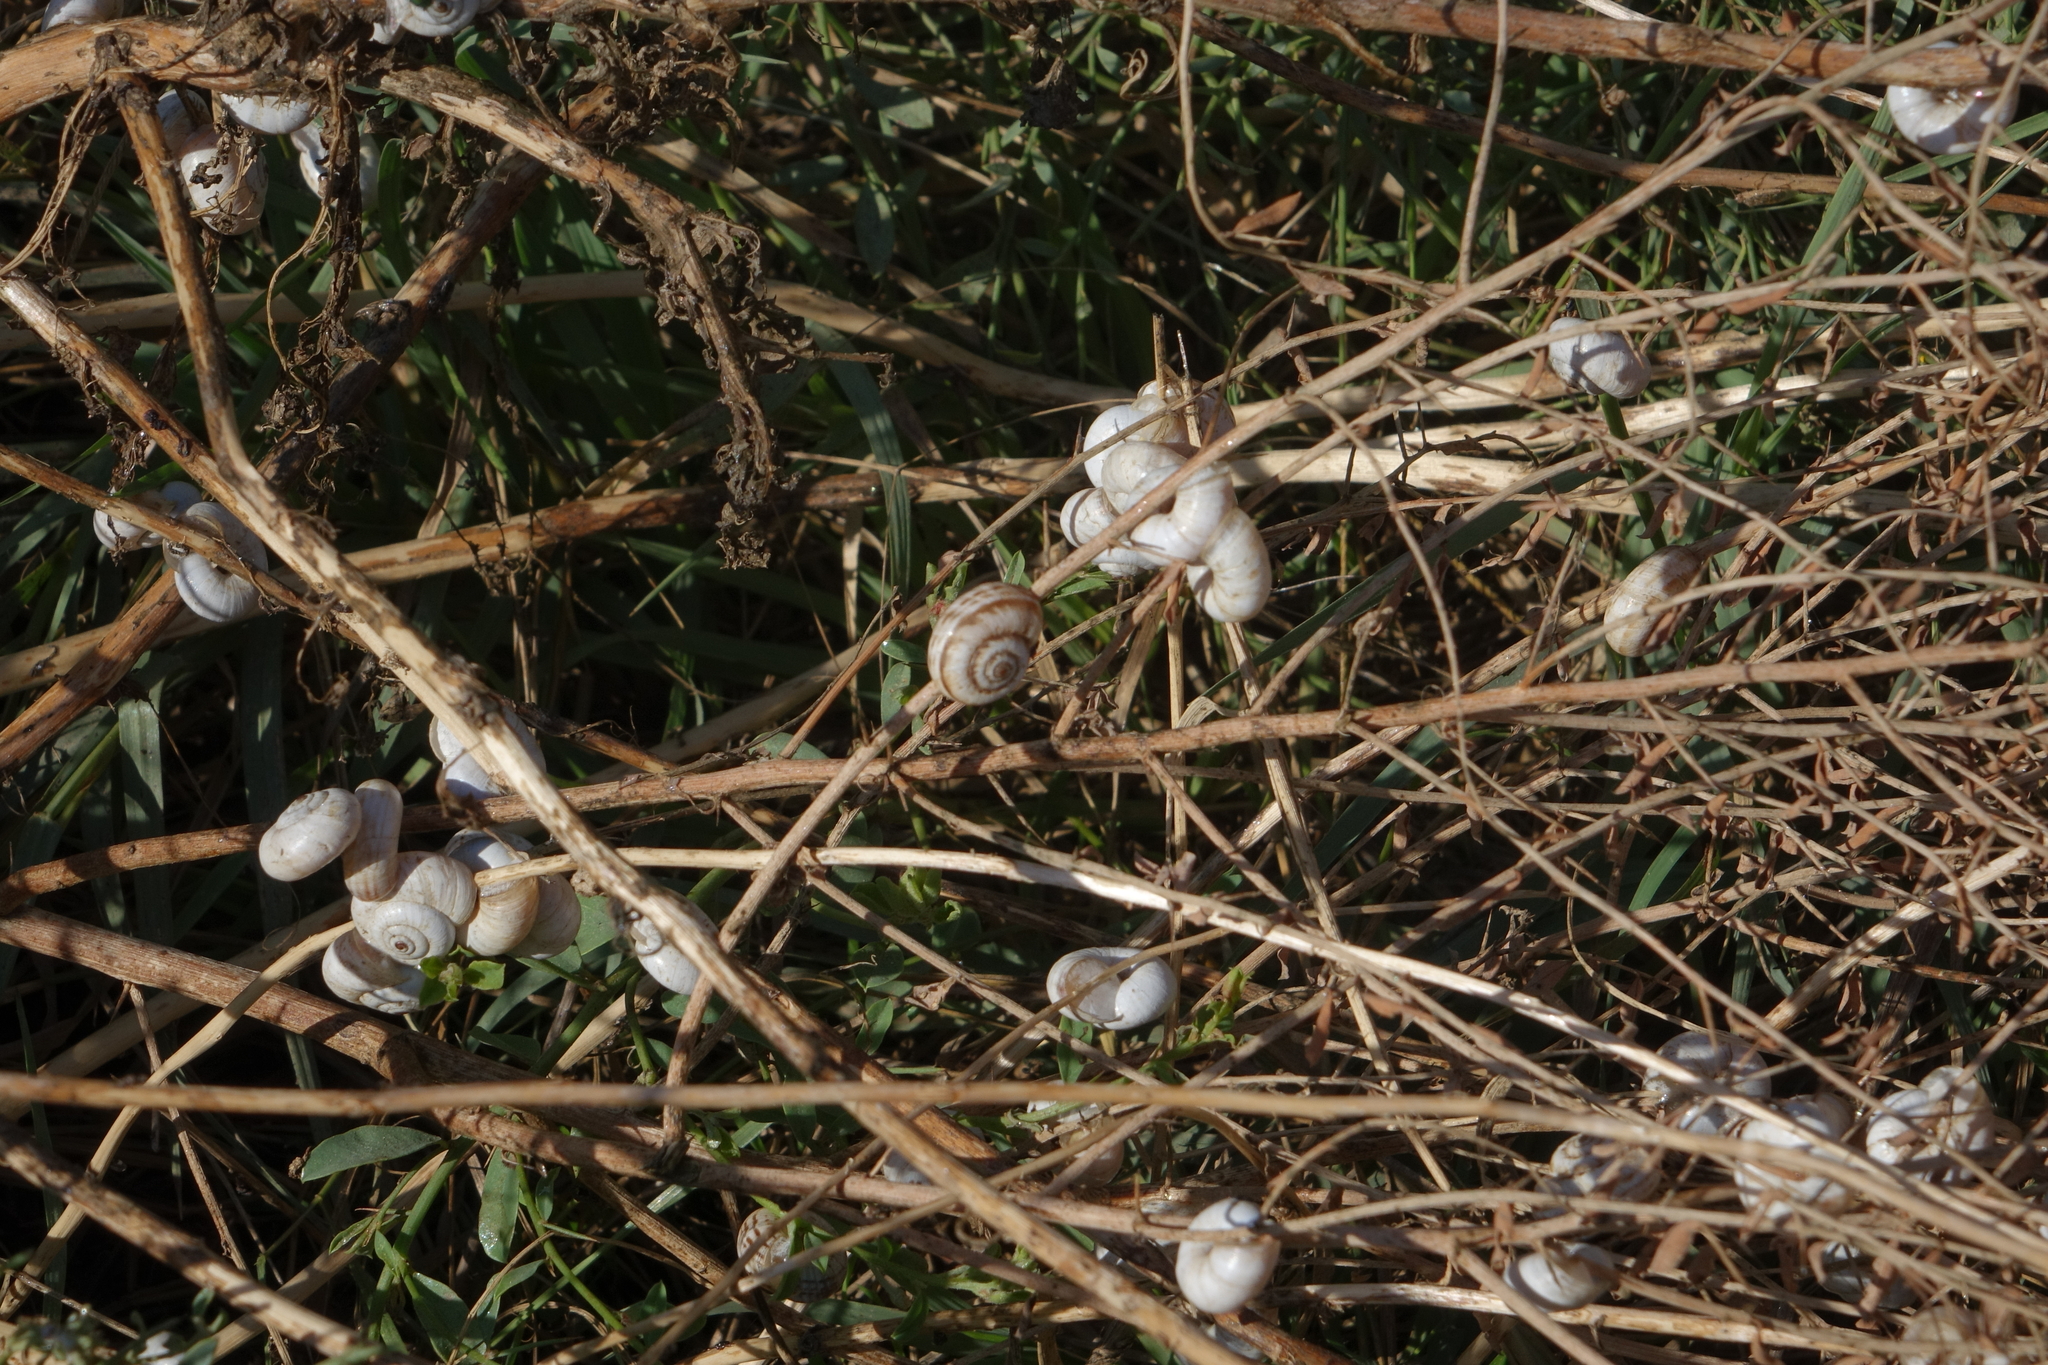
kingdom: Animalia
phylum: Mollusca
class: Gastropoda
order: Stylommatophora
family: Geomitridae
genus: Xeropicta
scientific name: Xeropicta derbentina
